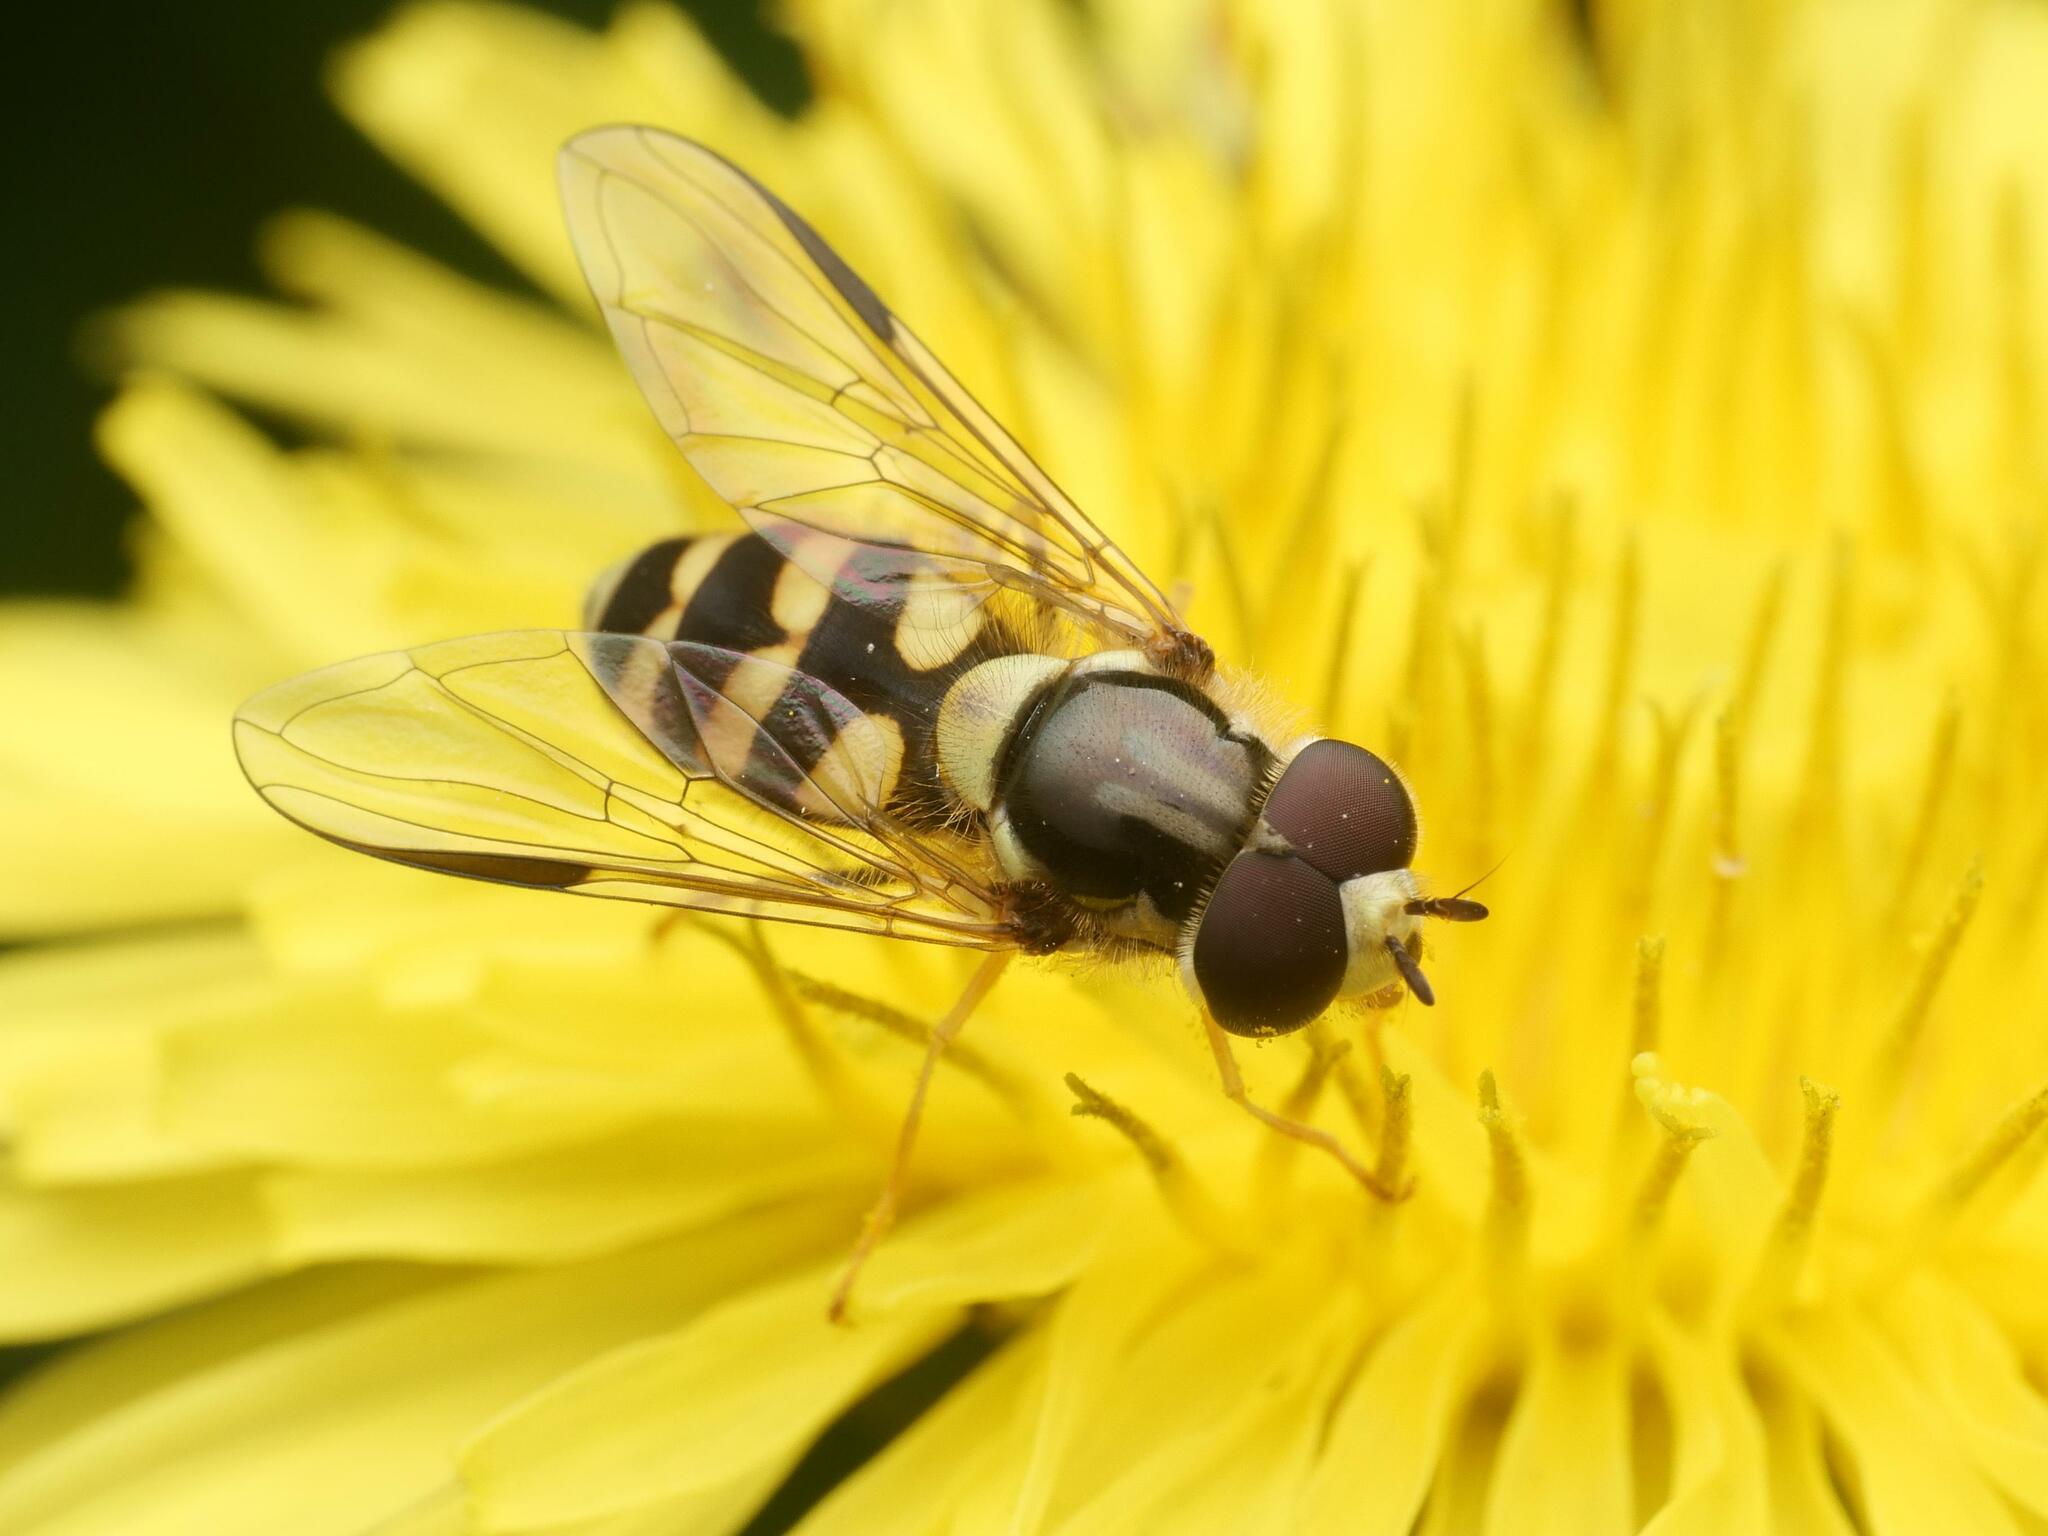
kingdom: Animalia
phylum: Arthropoda
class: Insecta
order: Diptera
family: Syrphidae
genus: Dasysyrphus
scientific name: Dasysyrphus albostriatus
